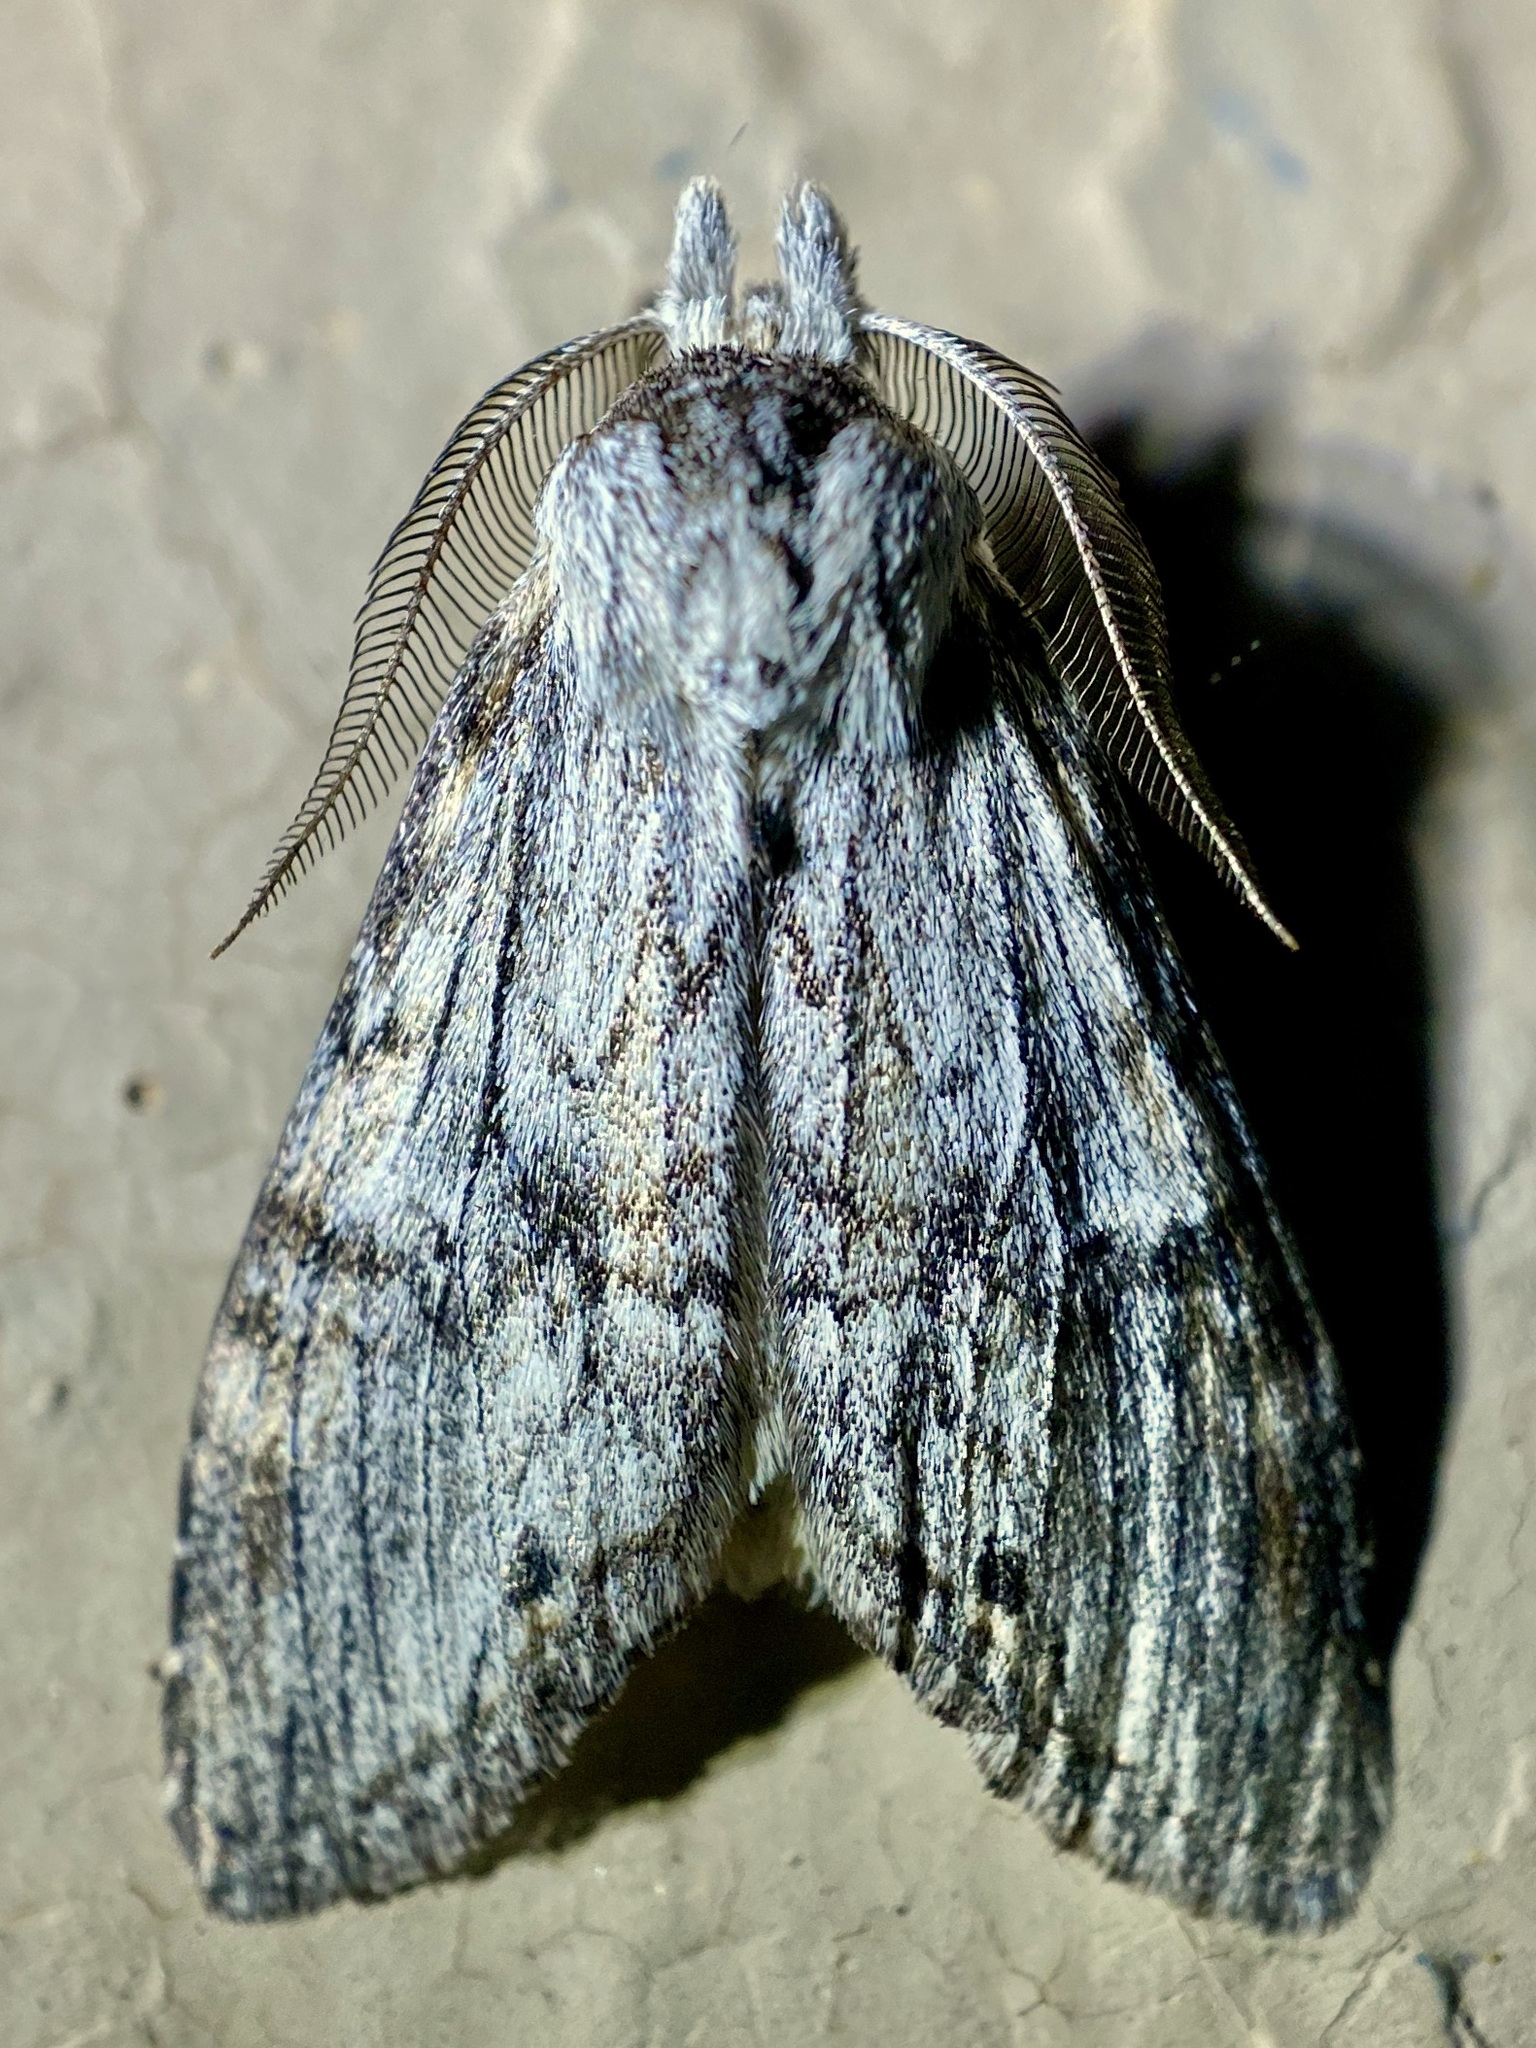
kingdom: Animalia
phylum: Arthropoda
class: Insecta
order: Lepidoptera
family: Notodontidae
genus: Notela
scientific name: Notela jaliscana
